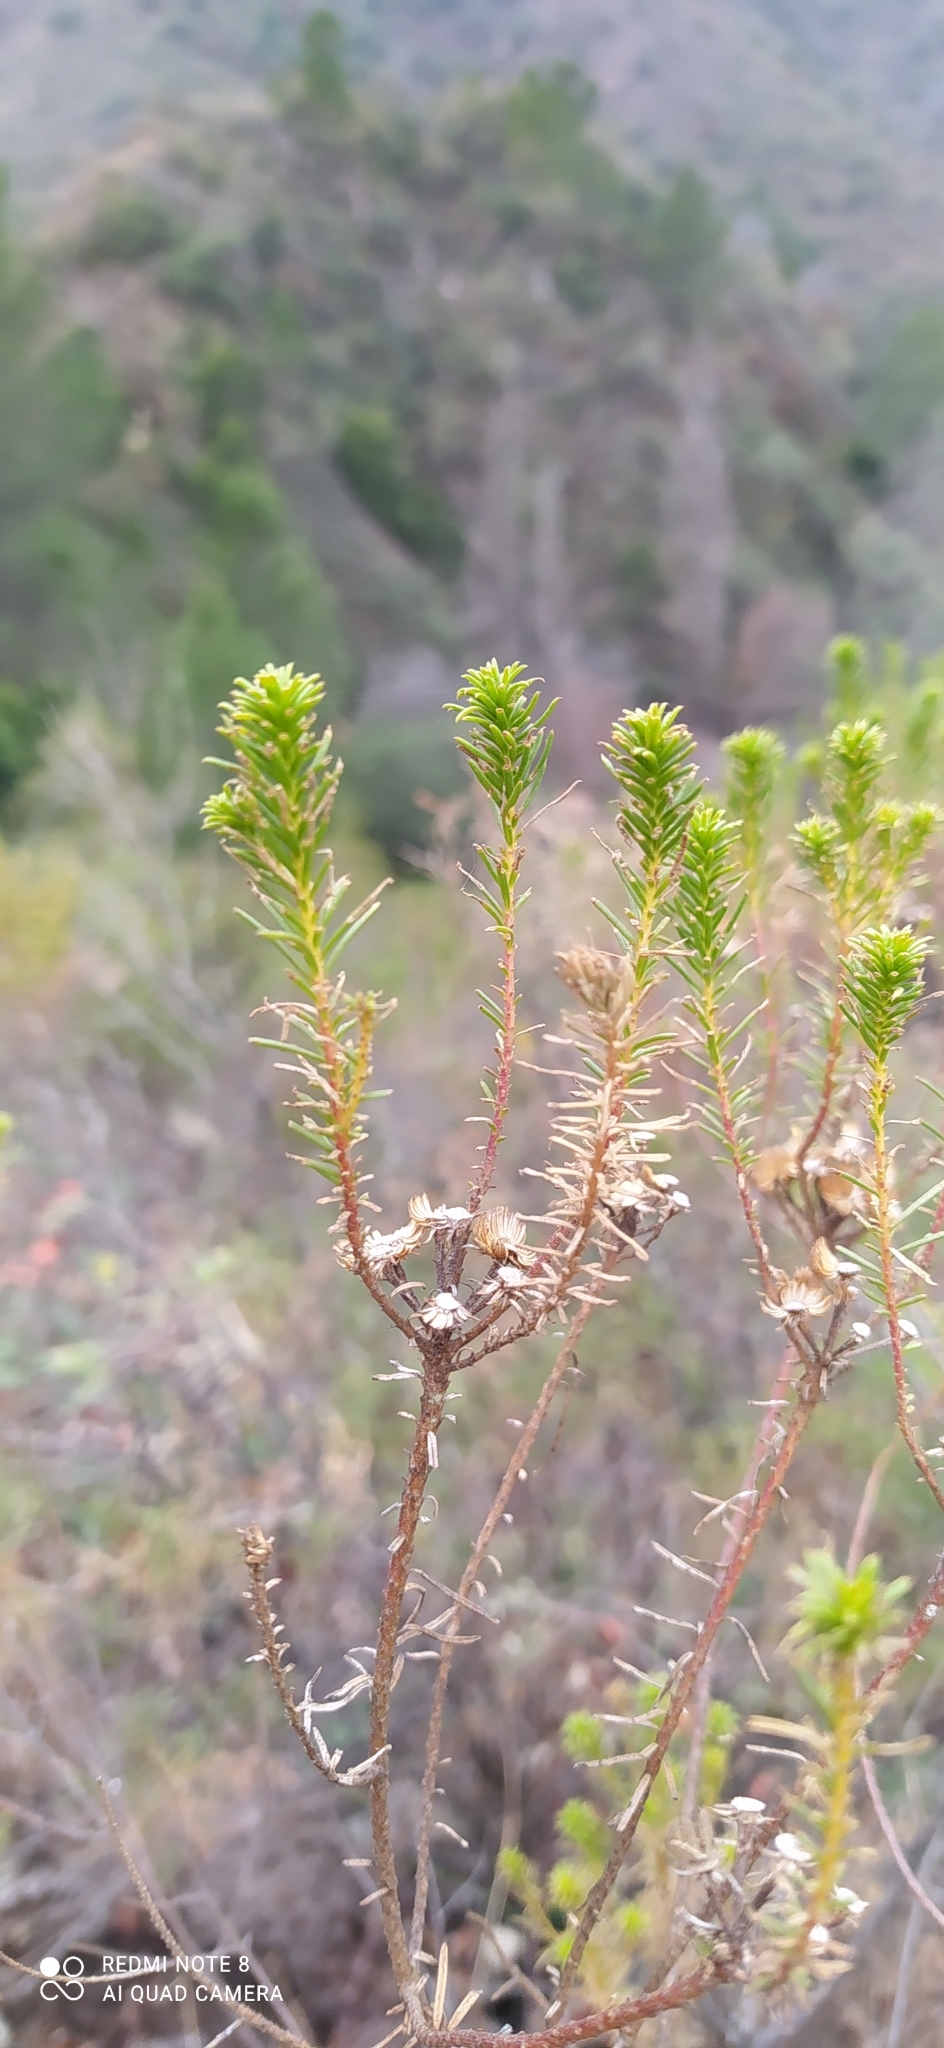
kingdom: Plantae
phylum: Tracheophyta
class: Magnoliopsida
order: Asterales
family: Asteraceae
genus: Baccharis
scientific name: Baccharis aliena
